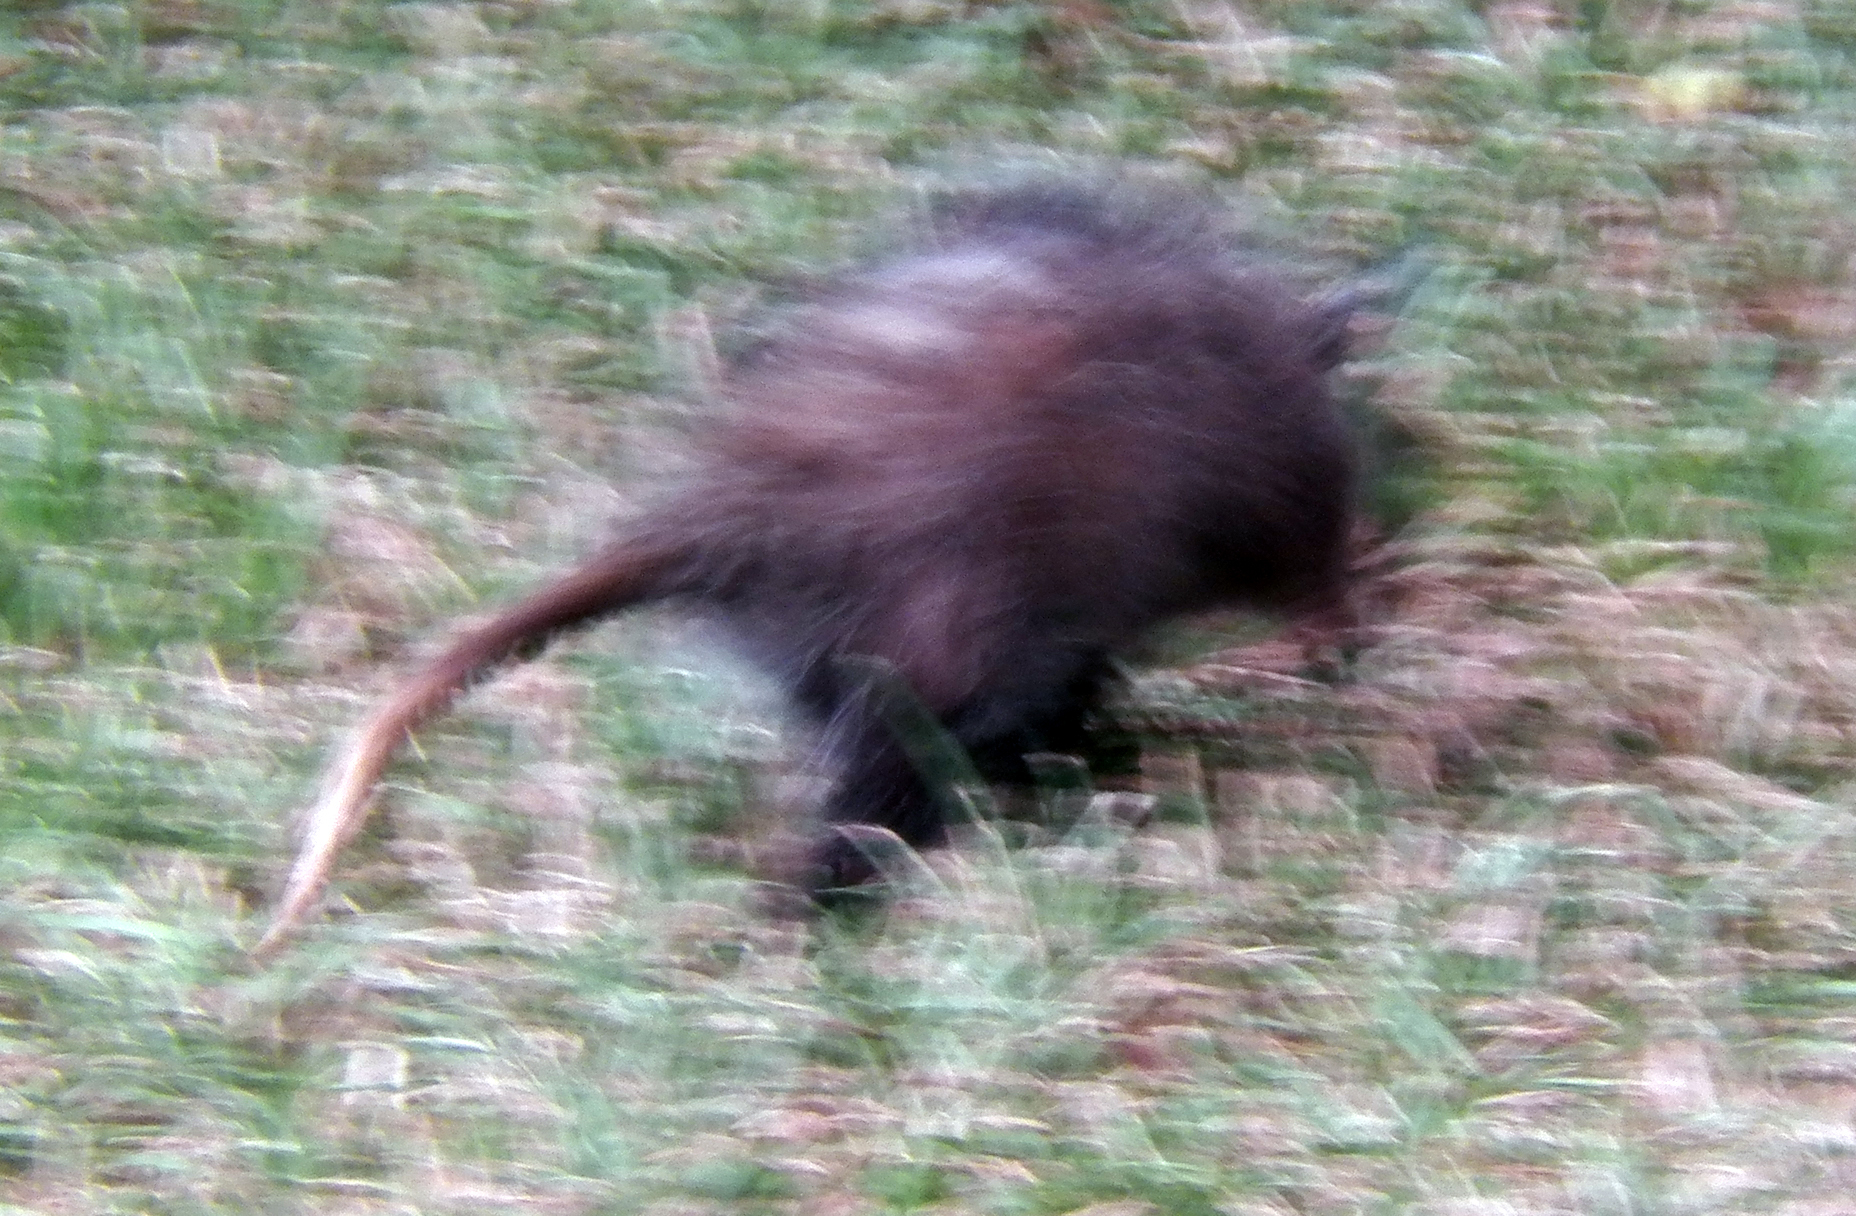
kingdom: Animalia
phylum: Chordata
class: Mammalia
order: Didelphimorphia
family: Didelphidae
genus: Didelphis
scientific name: Didelphis virginiana
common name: Virginia opossum
